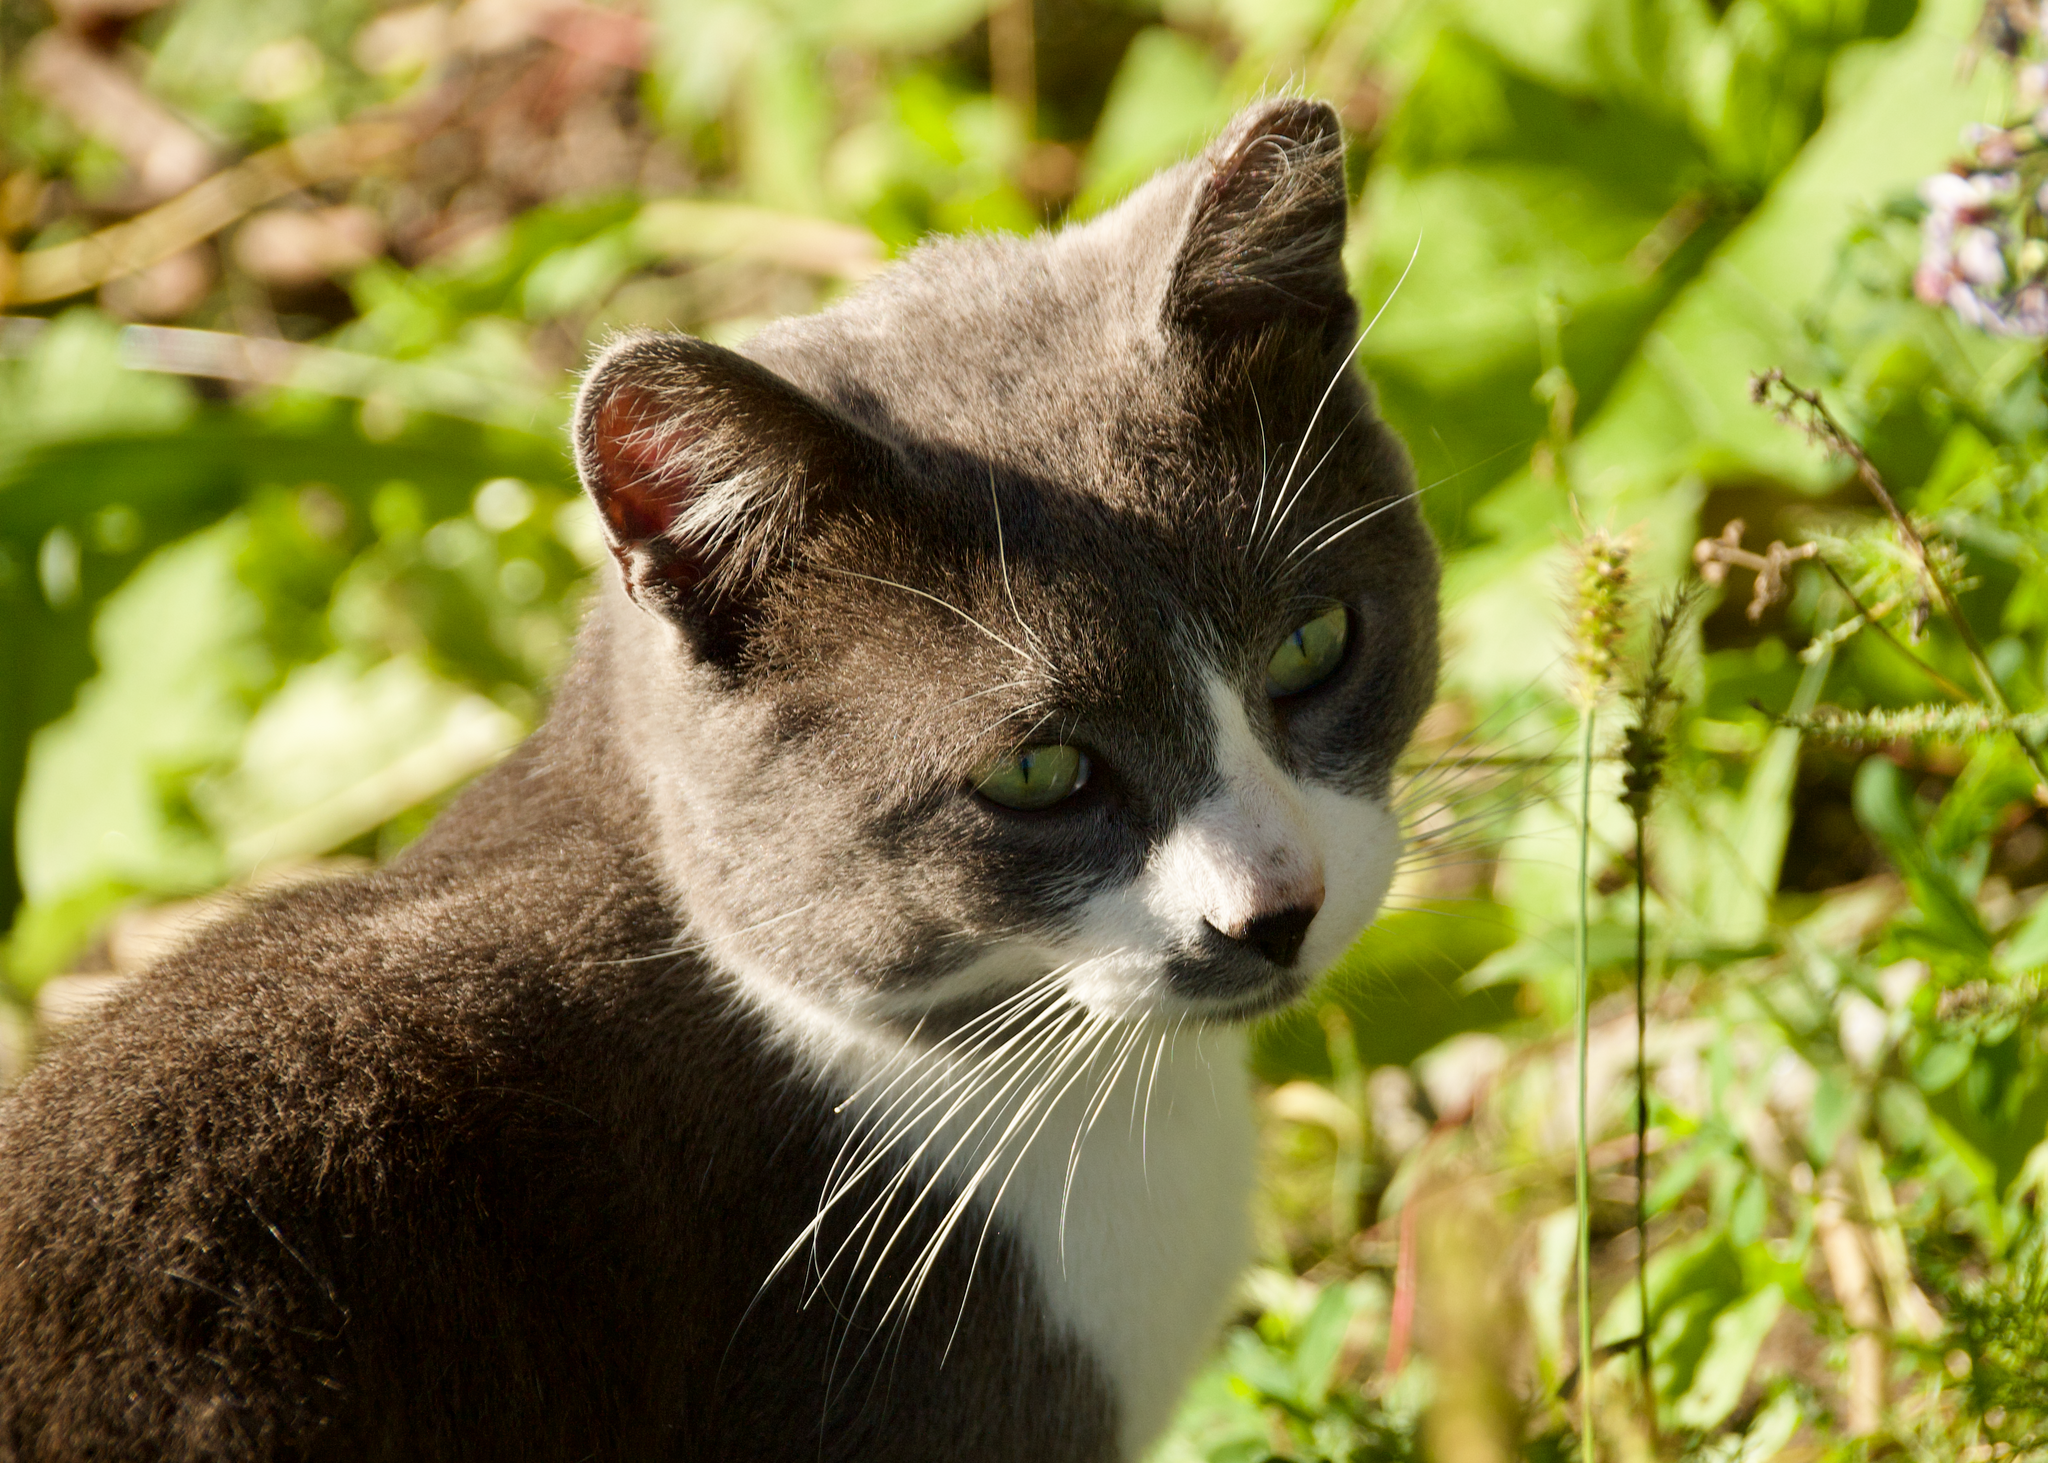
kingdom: Animalia
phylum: Chordata
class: Mammalia
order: Carnivora
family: Felidae
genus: Felis
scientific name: Felis catus
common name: Domestic cat
